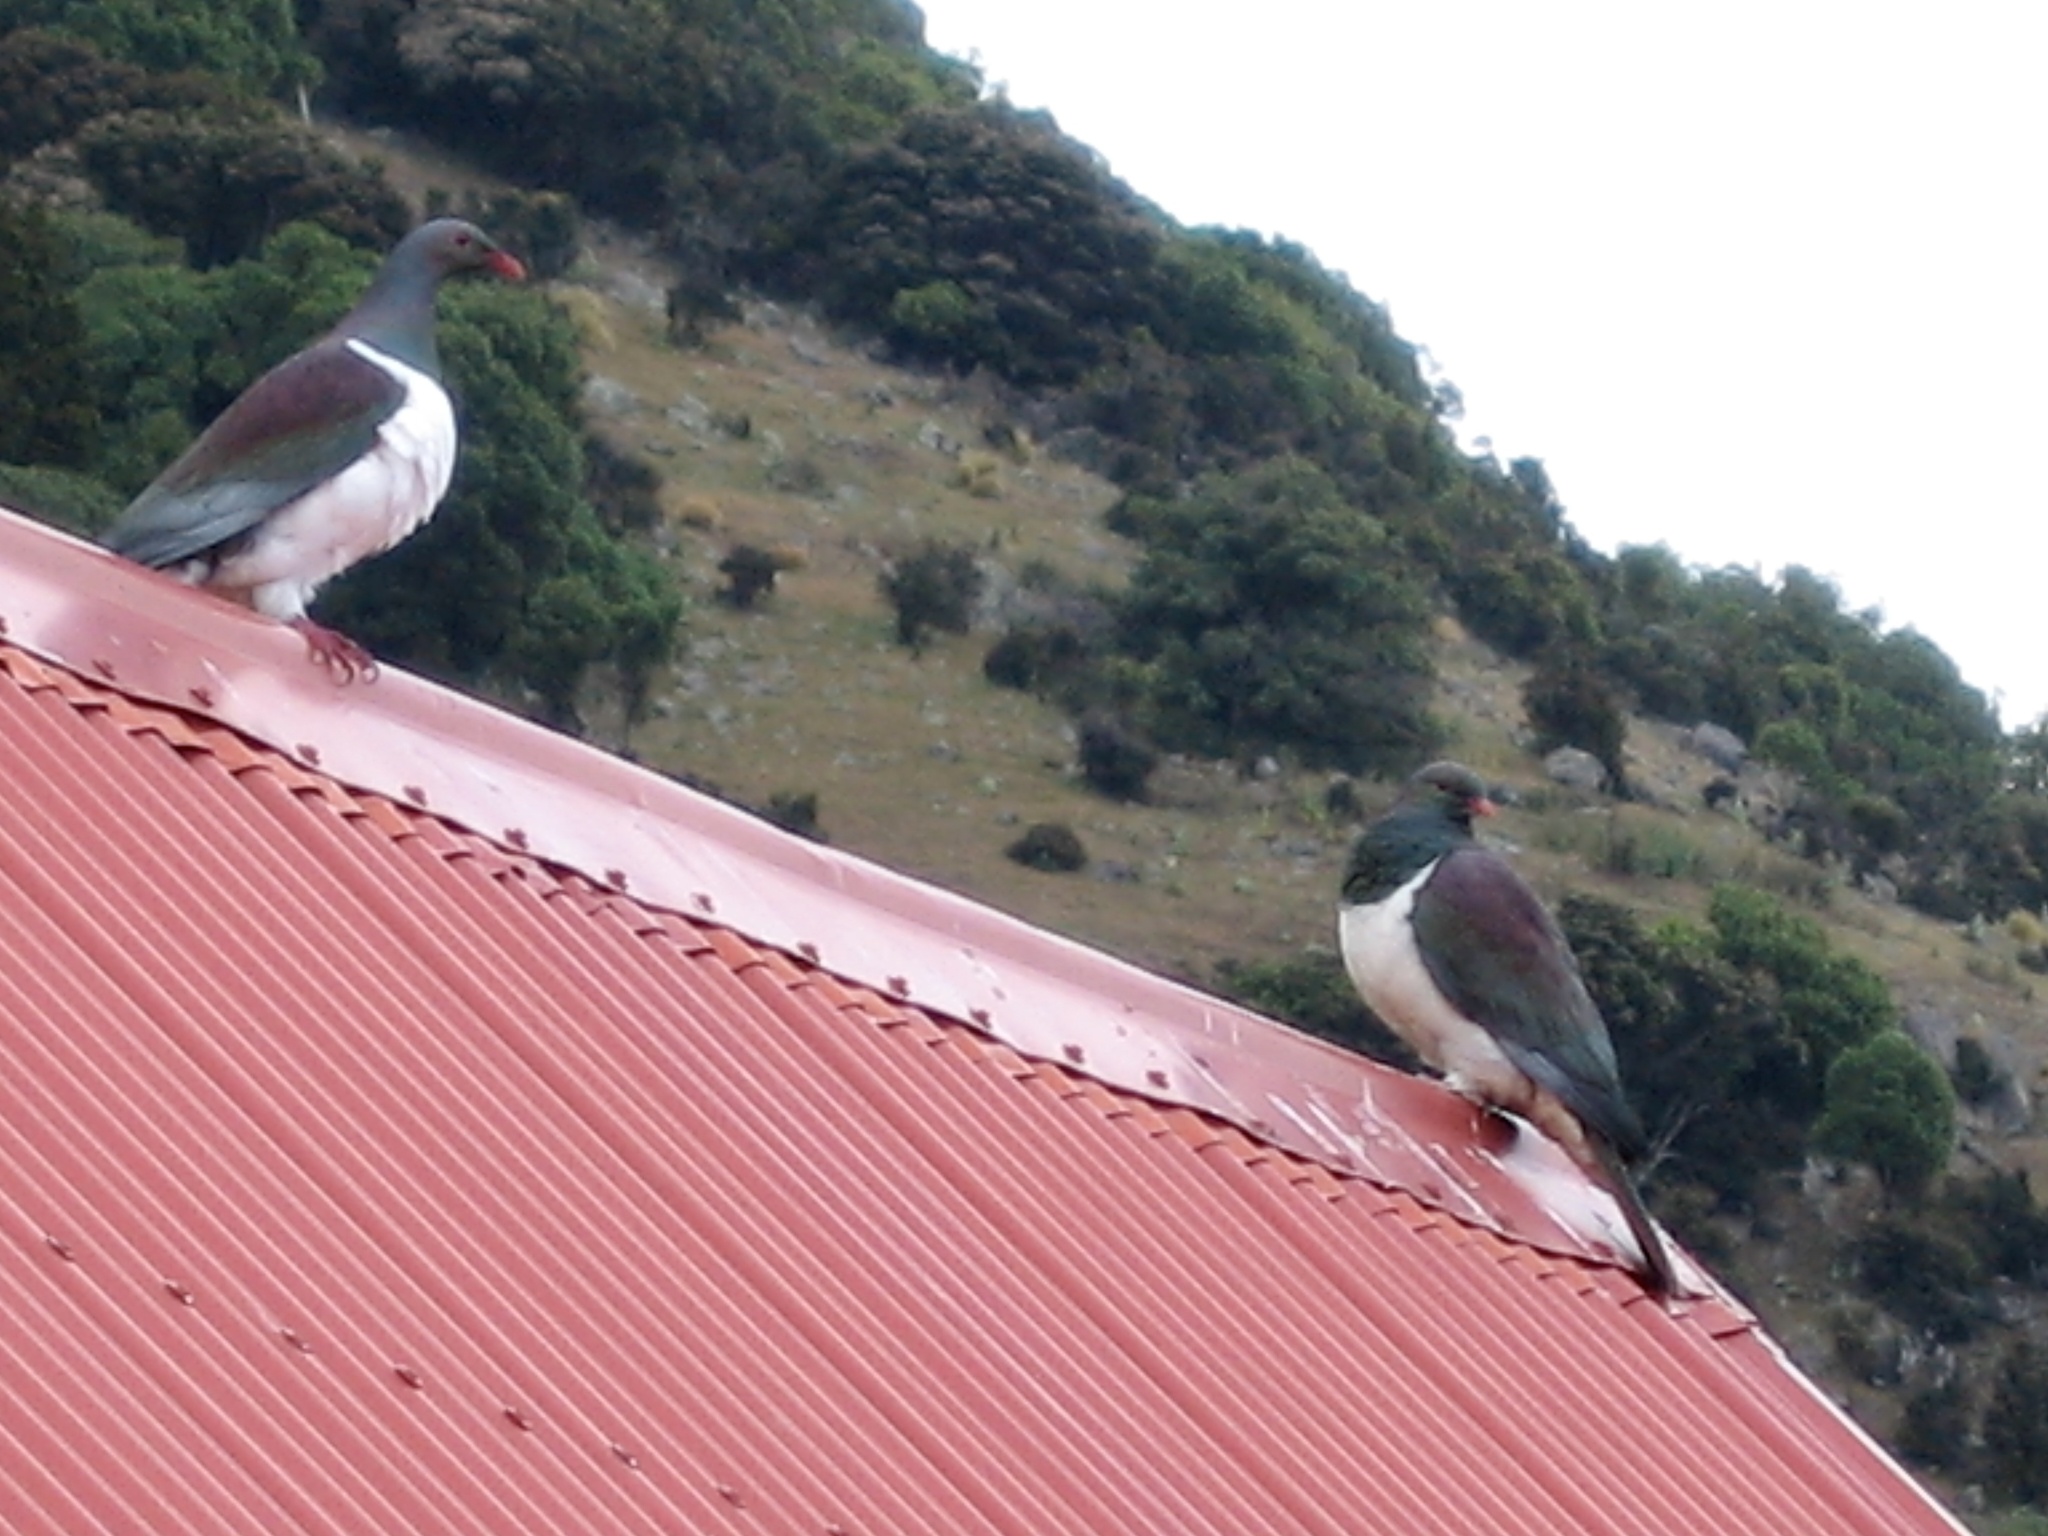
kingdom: Animalia
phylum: Chordata
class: Aves
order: Columbiformes
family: Columbidae
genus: Hemiphaga
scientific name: Hemiphaga novaeseelandiae
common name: New zealand pigeon
